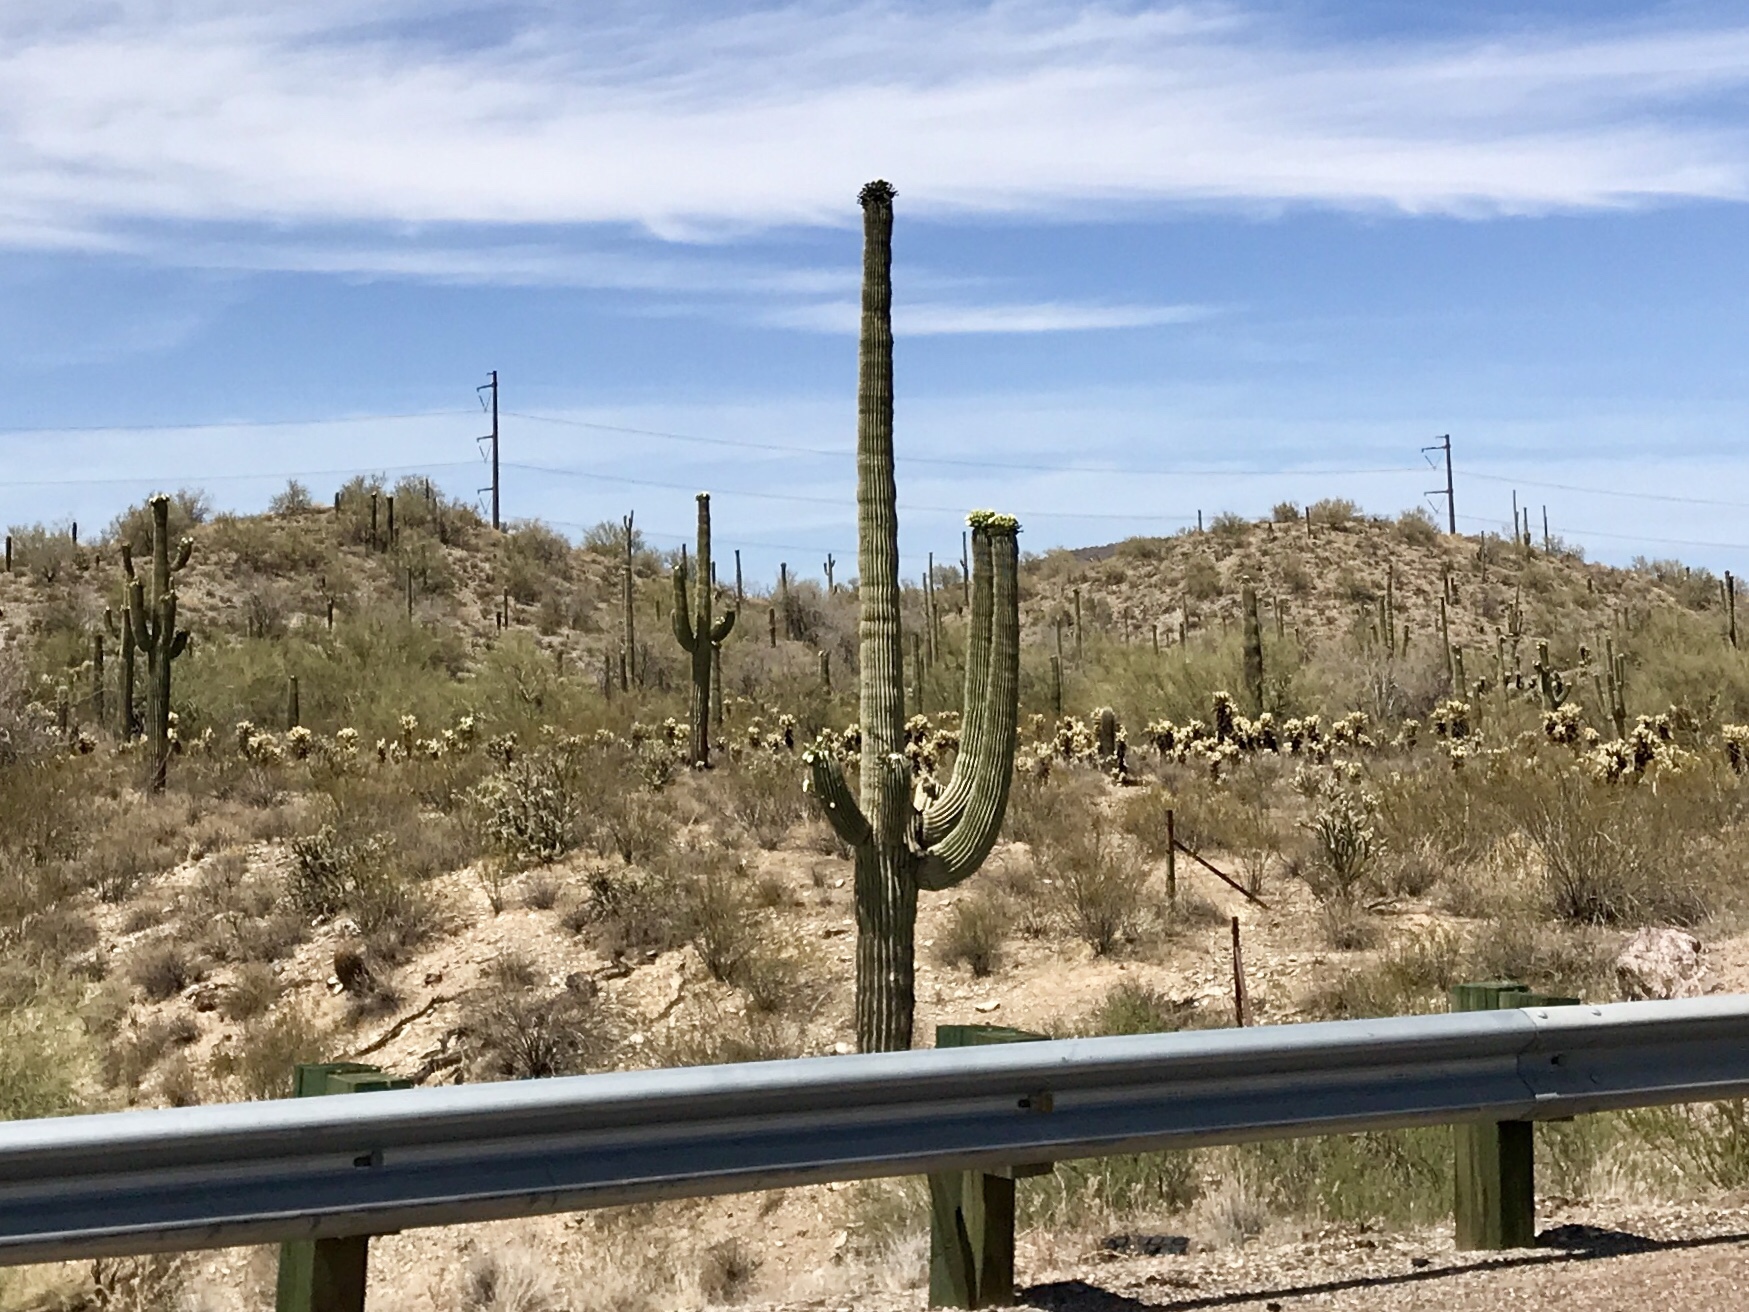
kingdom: Plantae
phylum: Tracheophyta
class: Magnoliopsida
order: Caryophyllales
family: Cactaceae
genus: Carnegiea
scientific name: Carnegiea gigantea
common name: Saguaro
